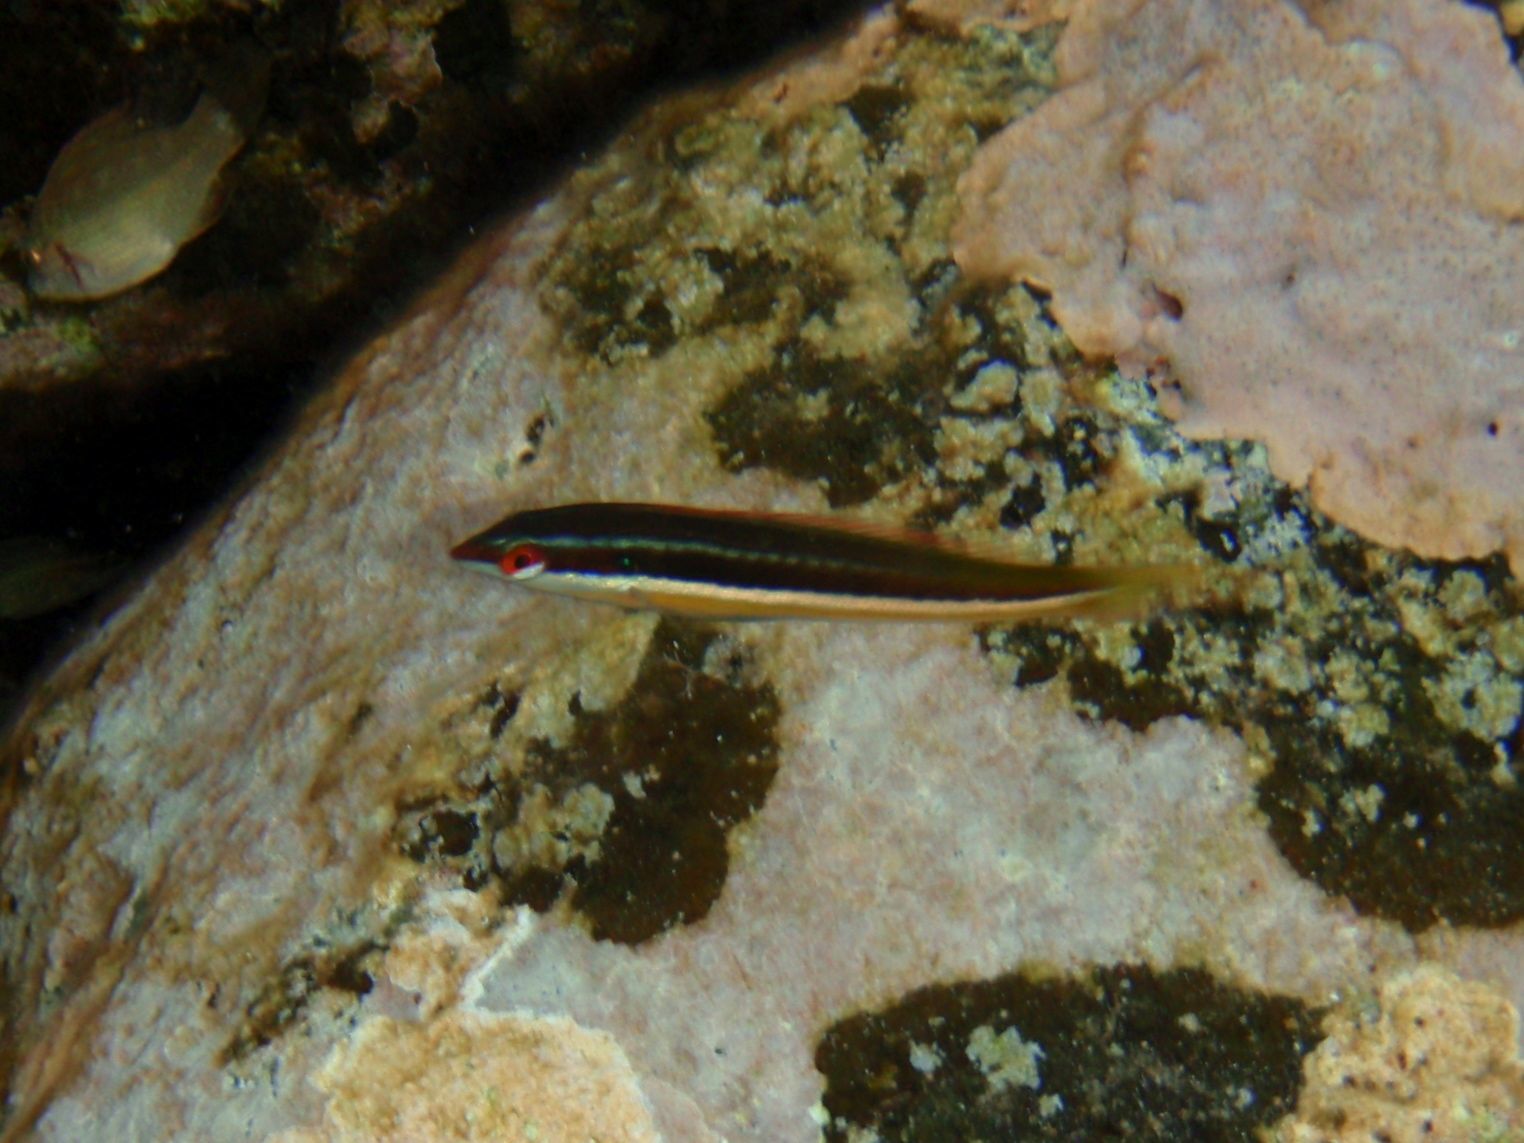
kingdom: Animalia
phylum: Chordata
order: Perciformes
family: Labridae
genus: Coris
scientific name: Coris julis
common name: Rainbow wrasse
